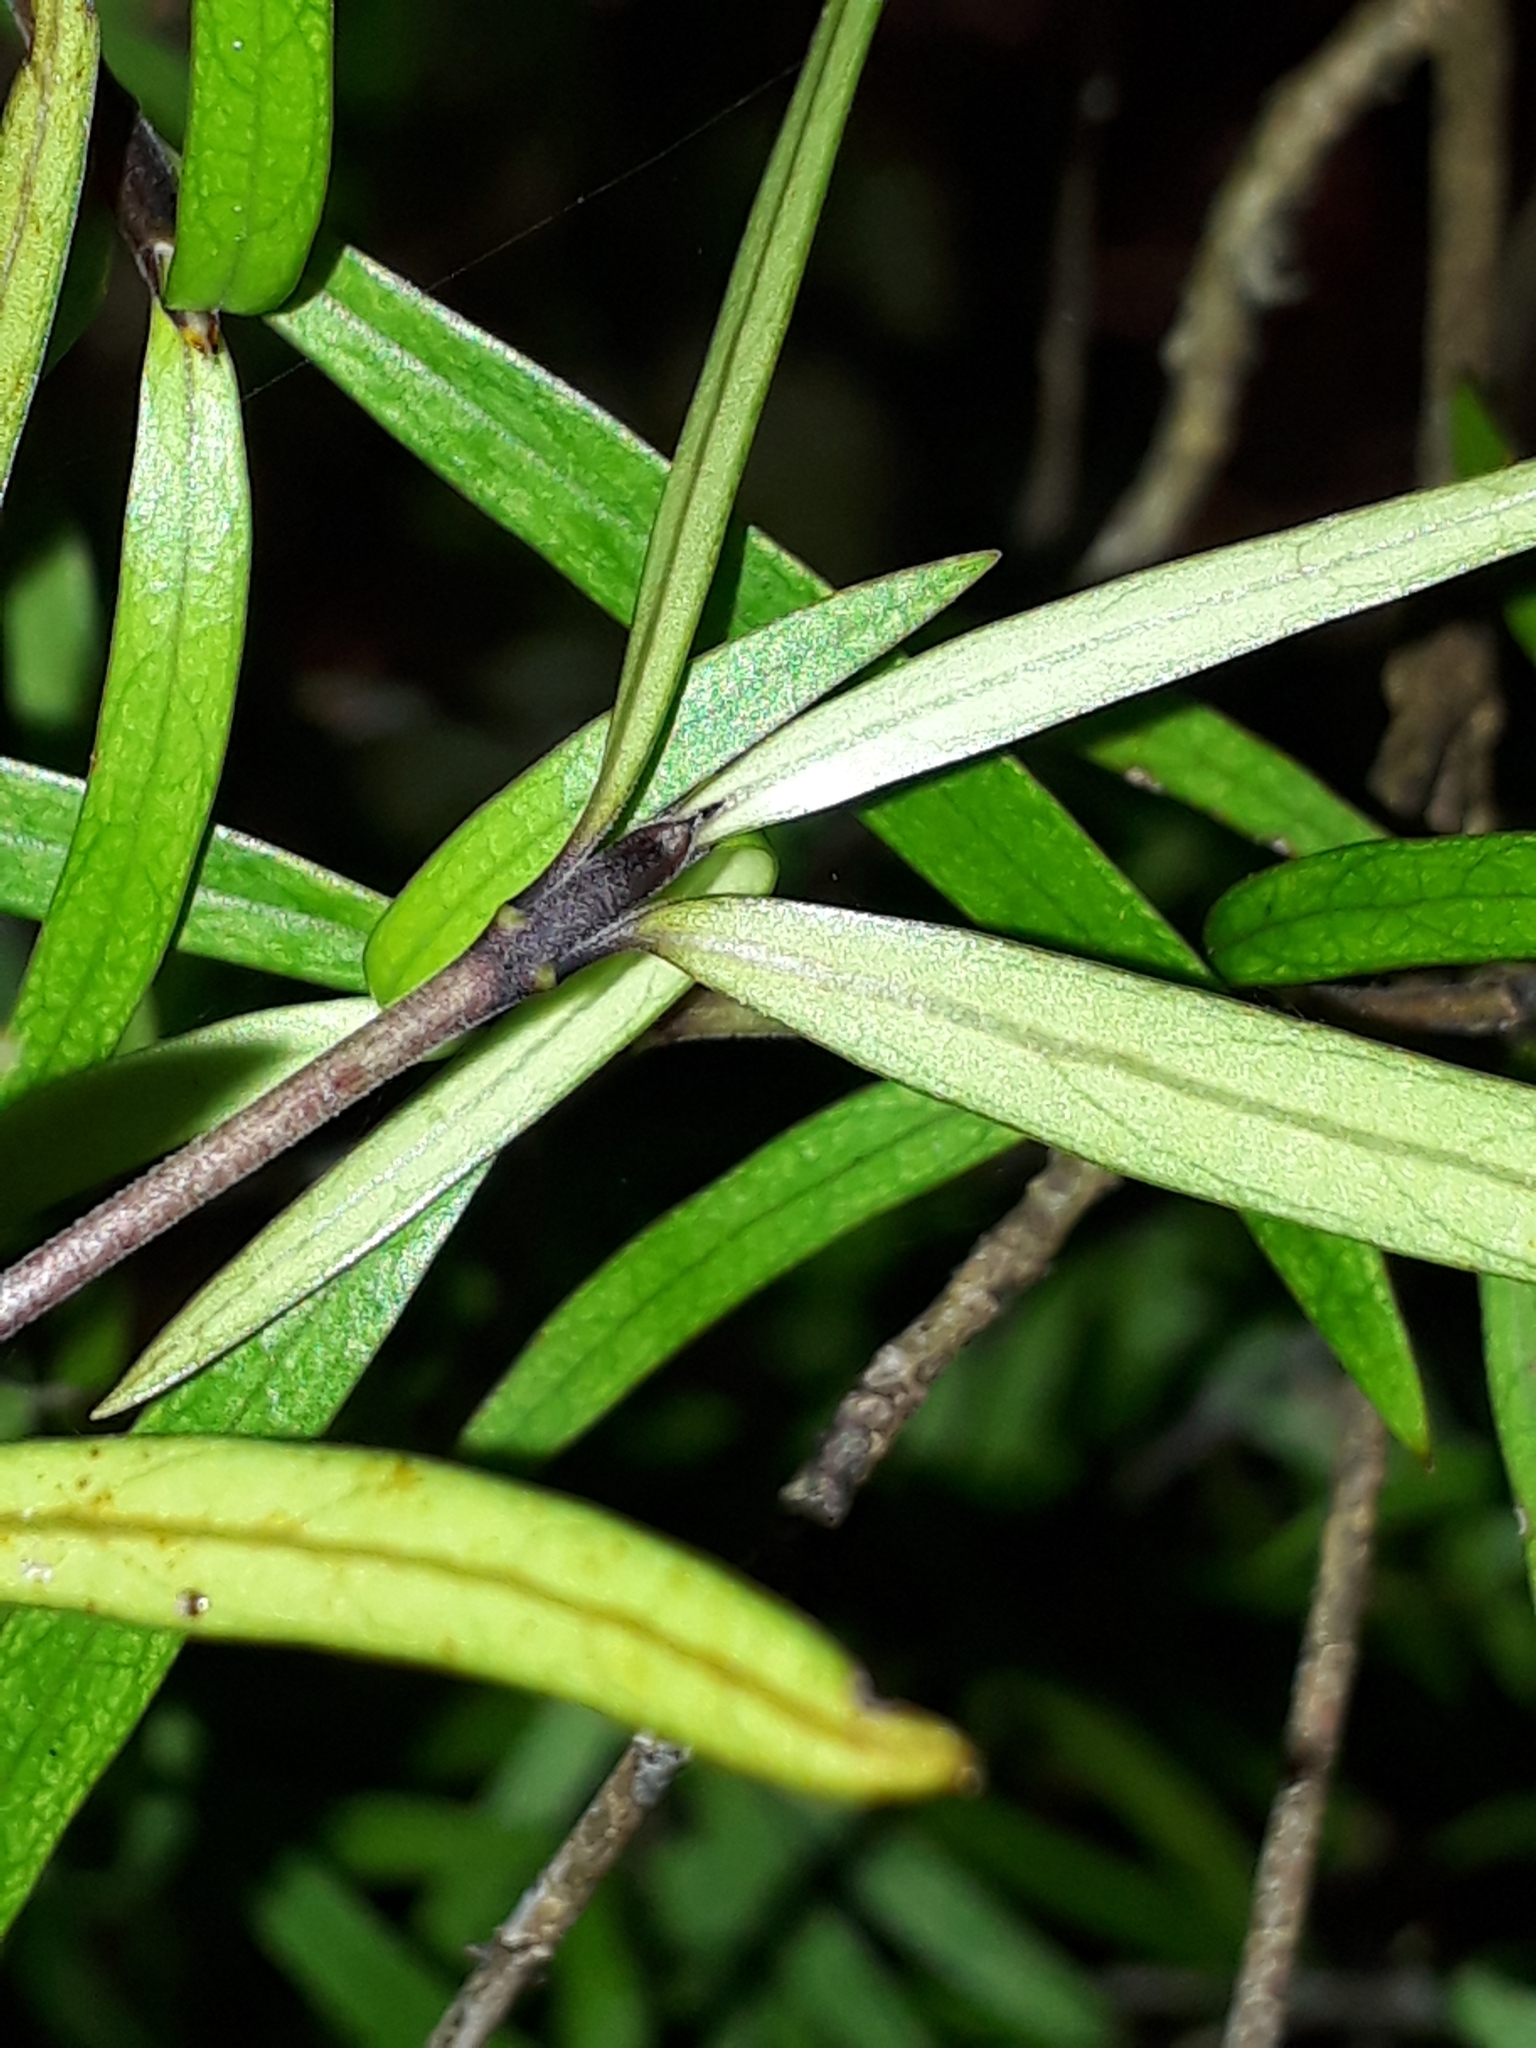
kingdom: Plantae
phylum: Tracheophyta
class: Magnoliopsida
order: Gentianales
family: Rubiaceae
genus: Coprosma
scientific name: Coprosma linariifolia
